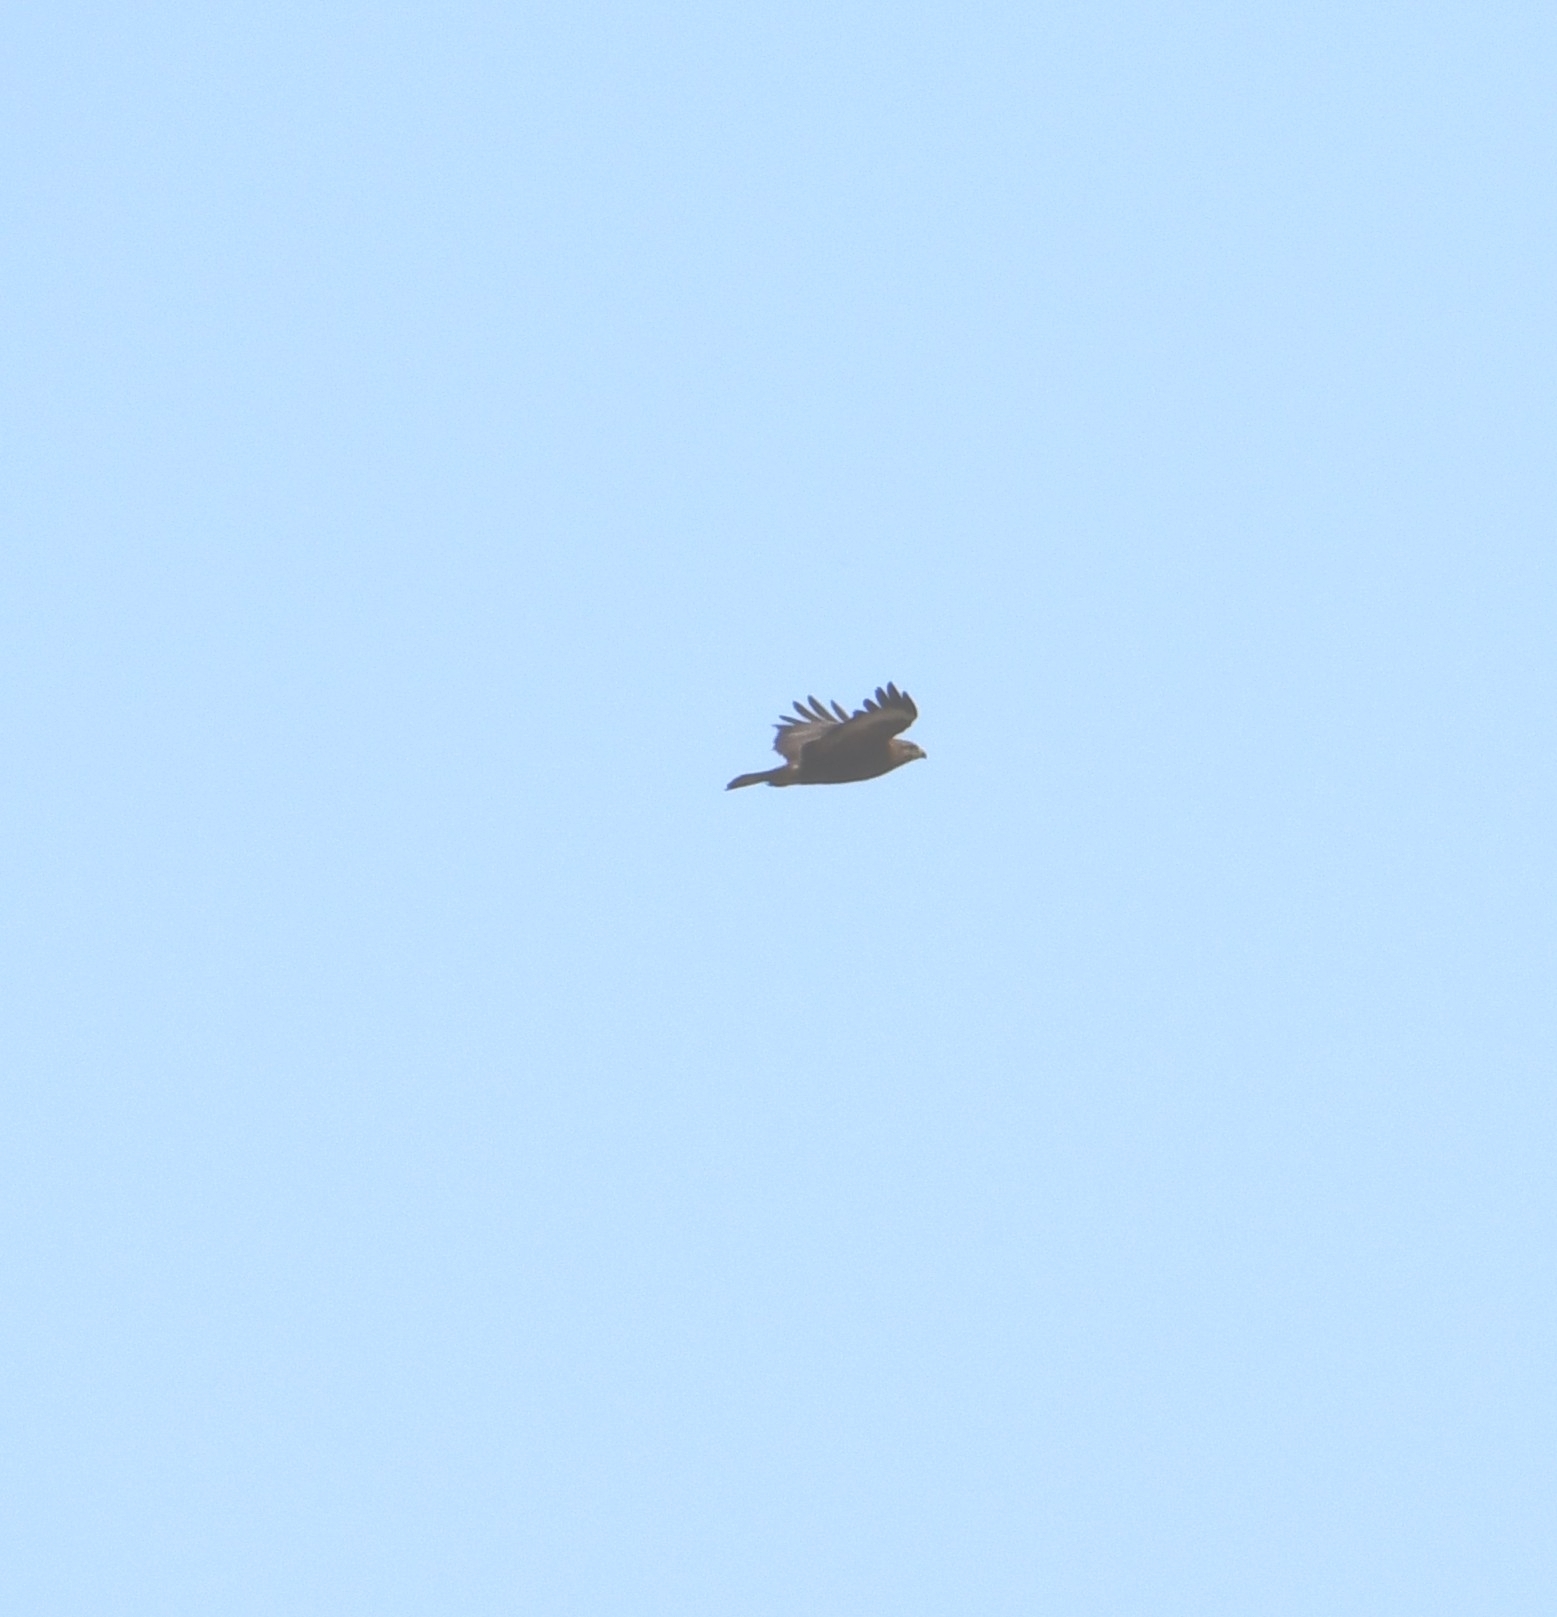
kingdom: Animalia
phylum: Chordata
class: Aves
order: Accipitriformes
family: Accipitridae
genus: Buteo
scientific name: Buteo buteo
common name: Common buzzard
